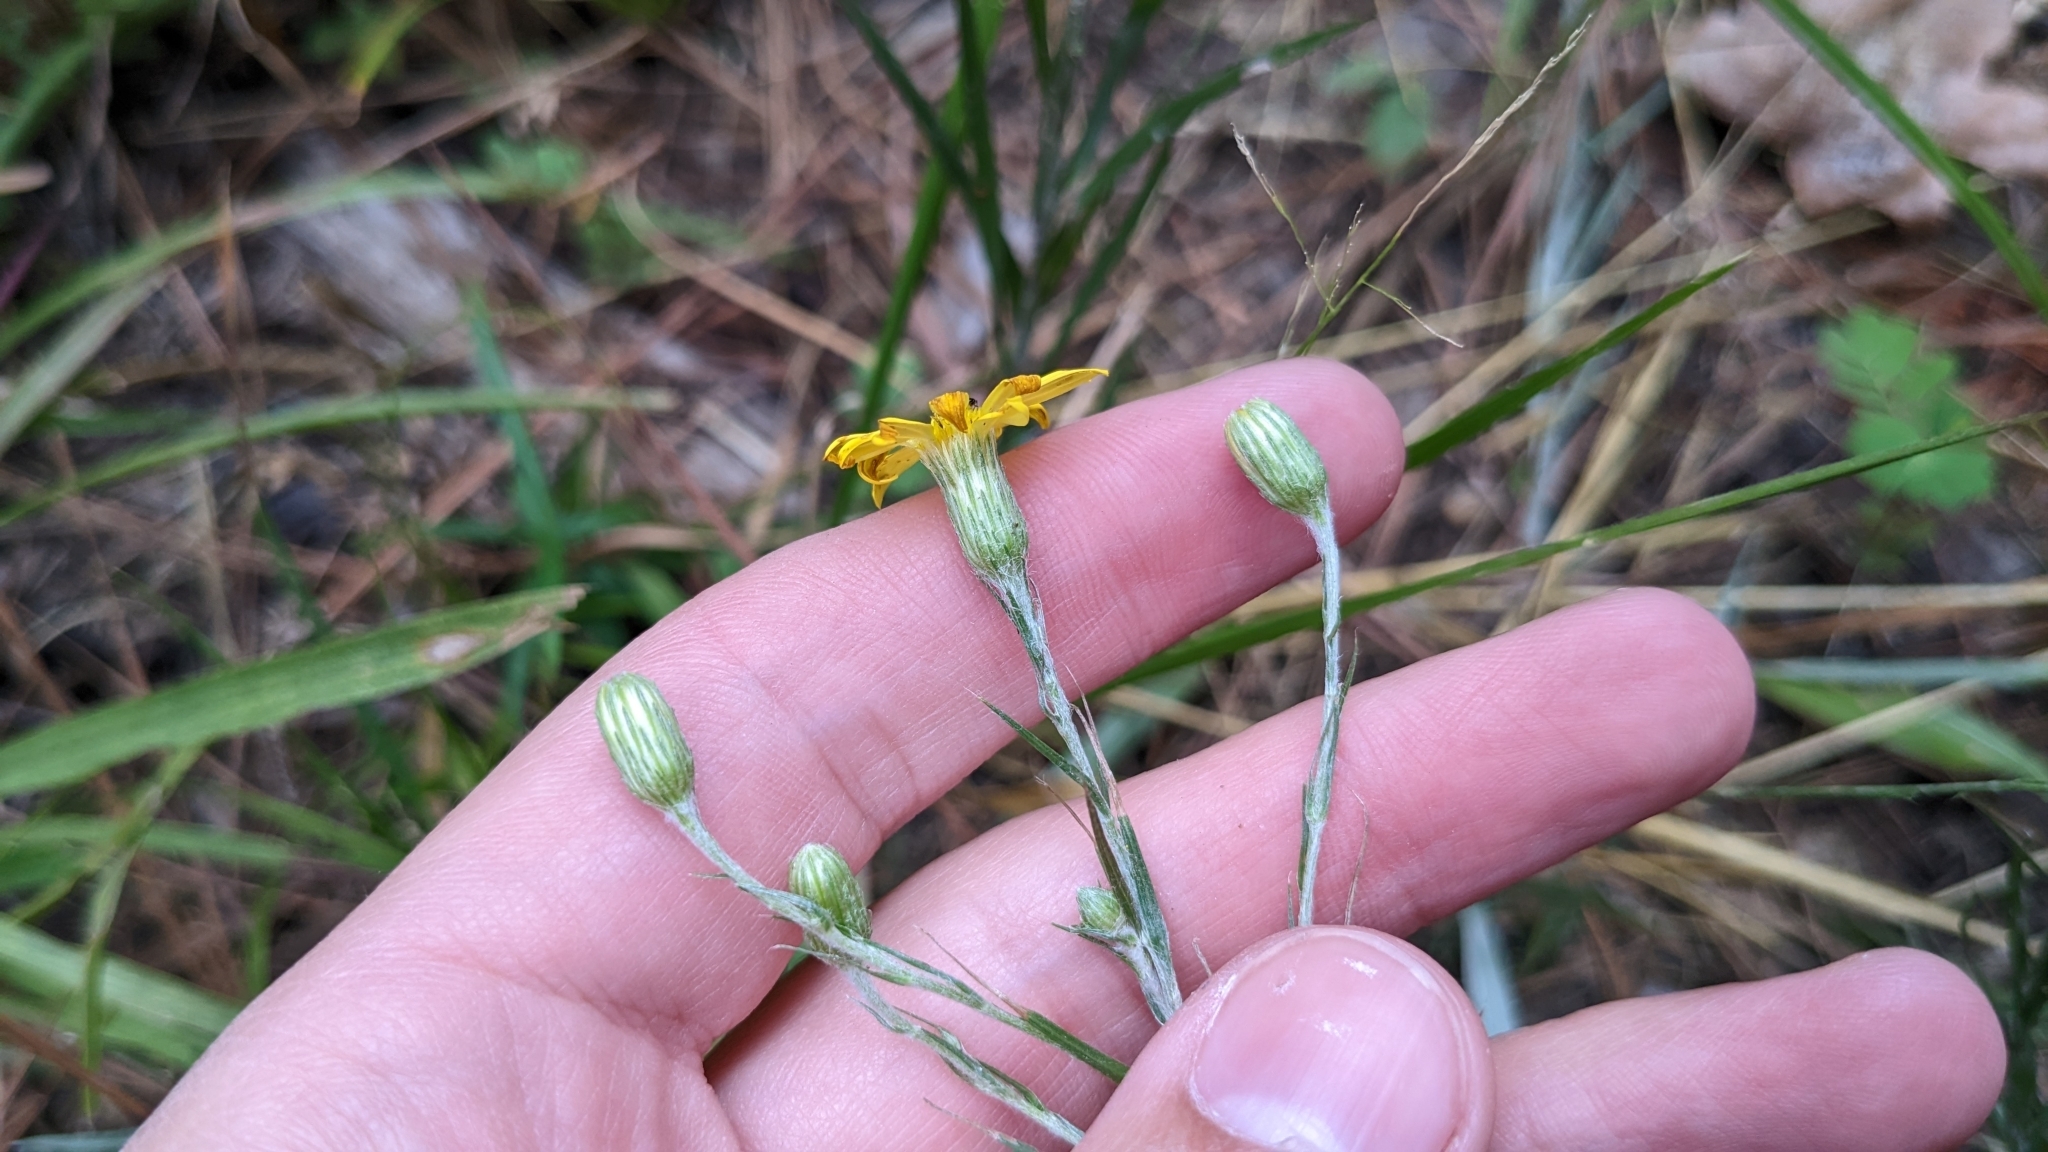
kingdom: Plantae
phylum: Tracheophyta
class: Magnoliopsida
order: Asterales
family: Asteraceae
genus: Pityopsis
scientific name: Pityopsis graminifolia
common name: Grass-leaf golden-aster
